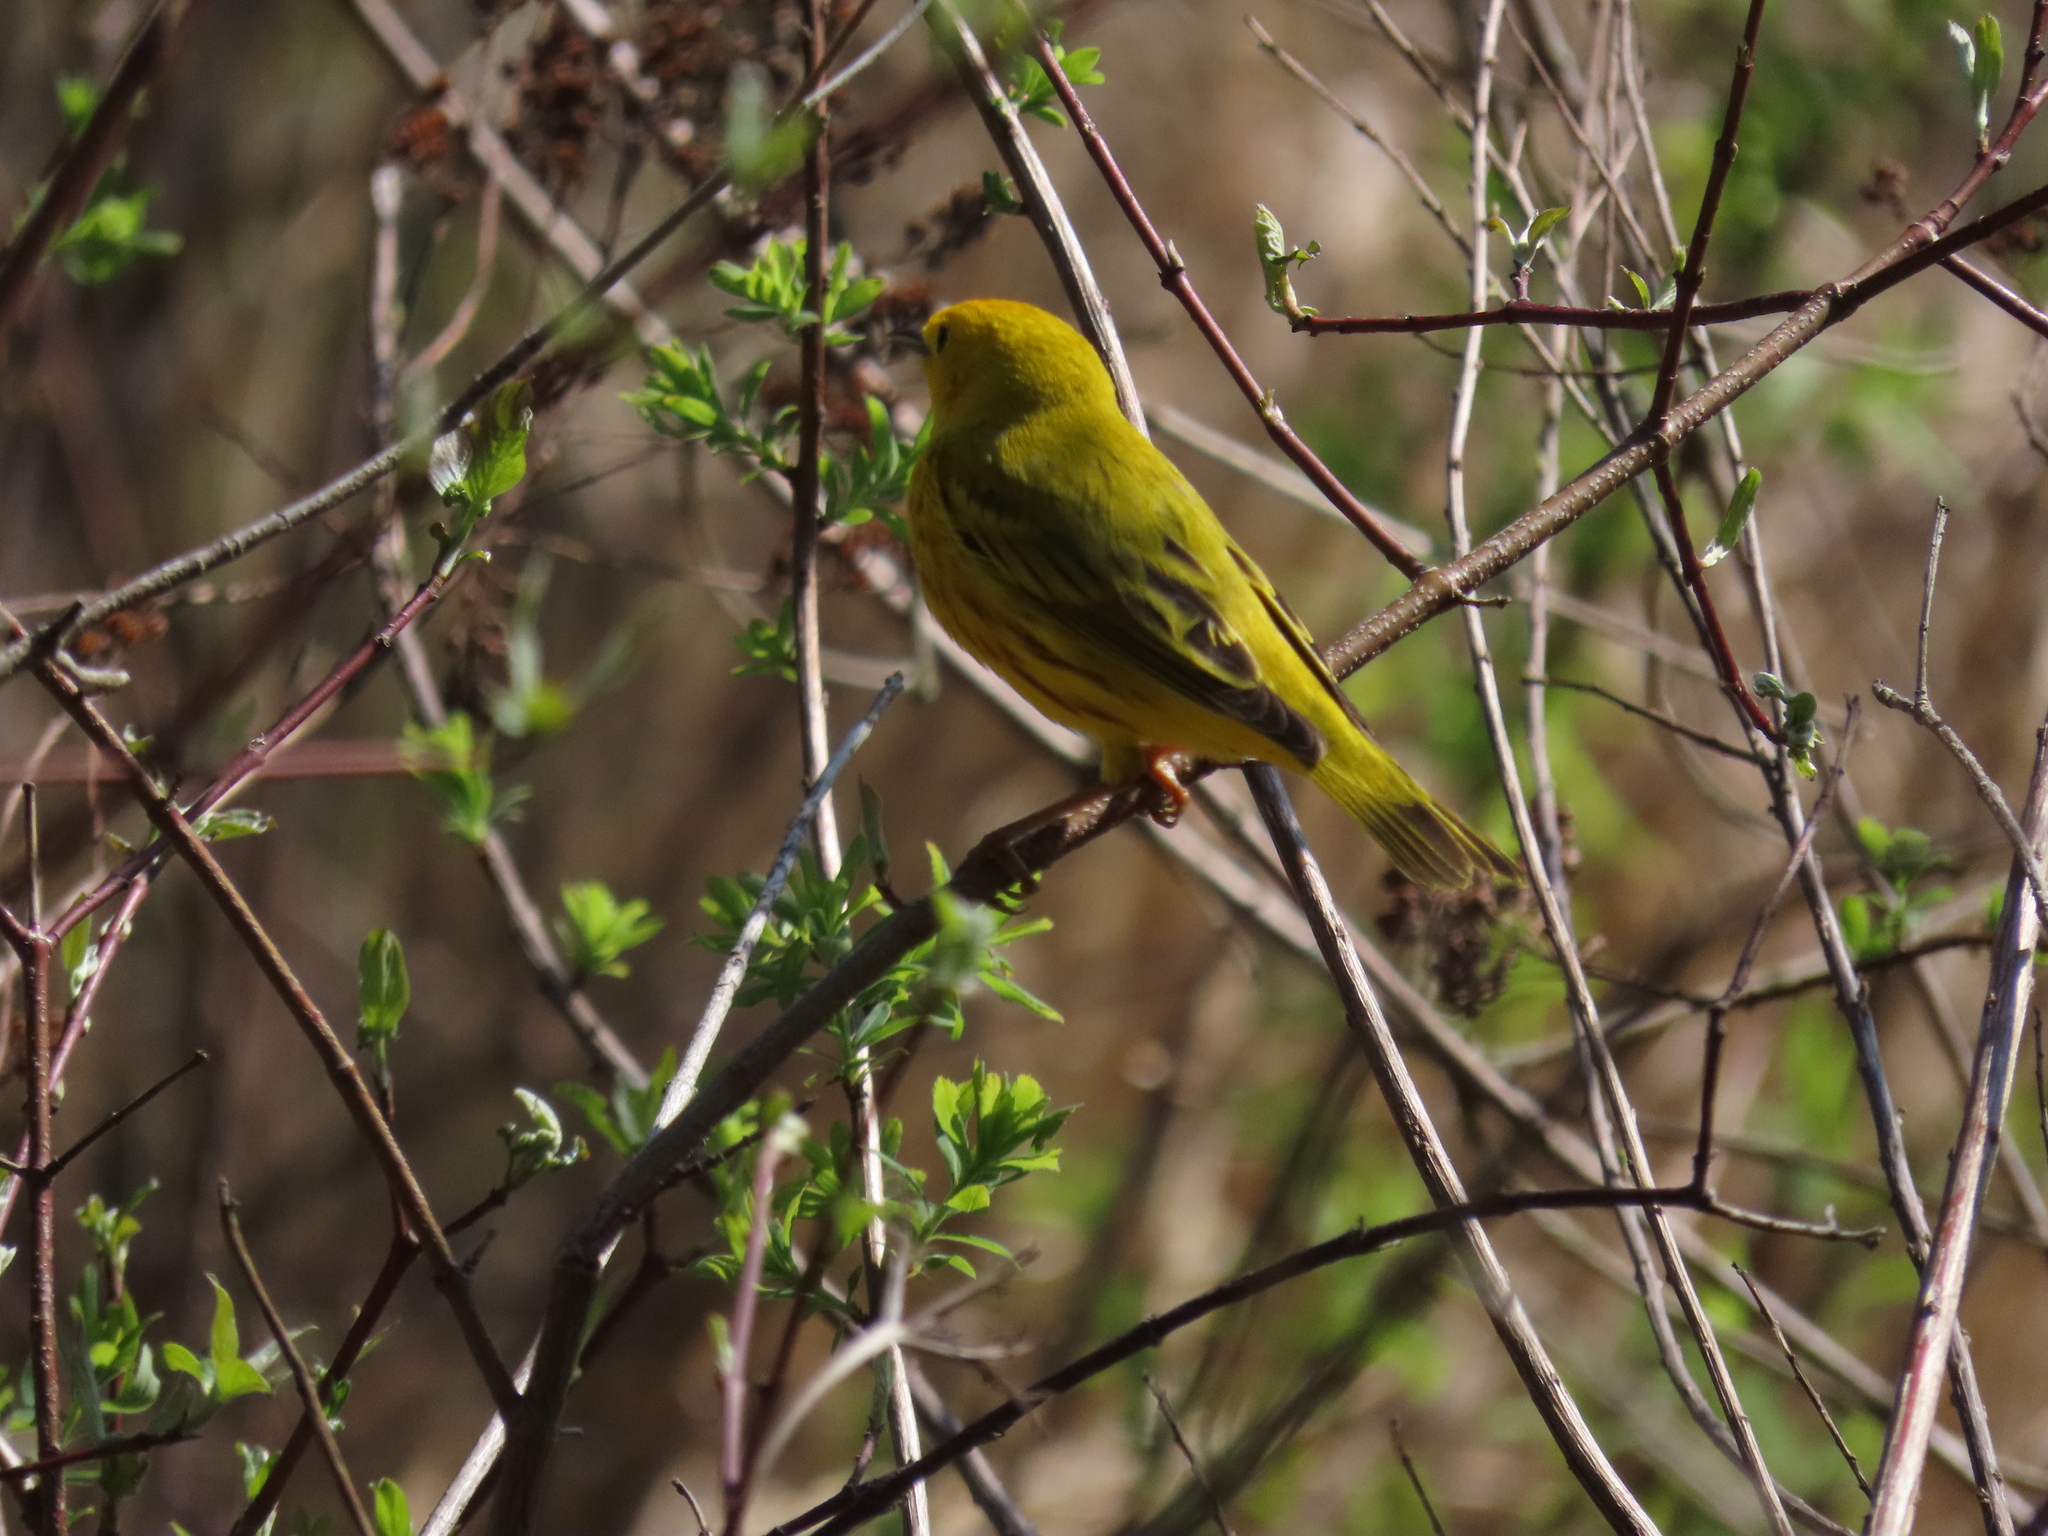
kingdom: Animalia
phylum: Chordata
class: Aves
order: Passeriformes
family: Parulidae
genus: Setophaga
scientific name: Setophaga petechia
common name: Yellow warbler
